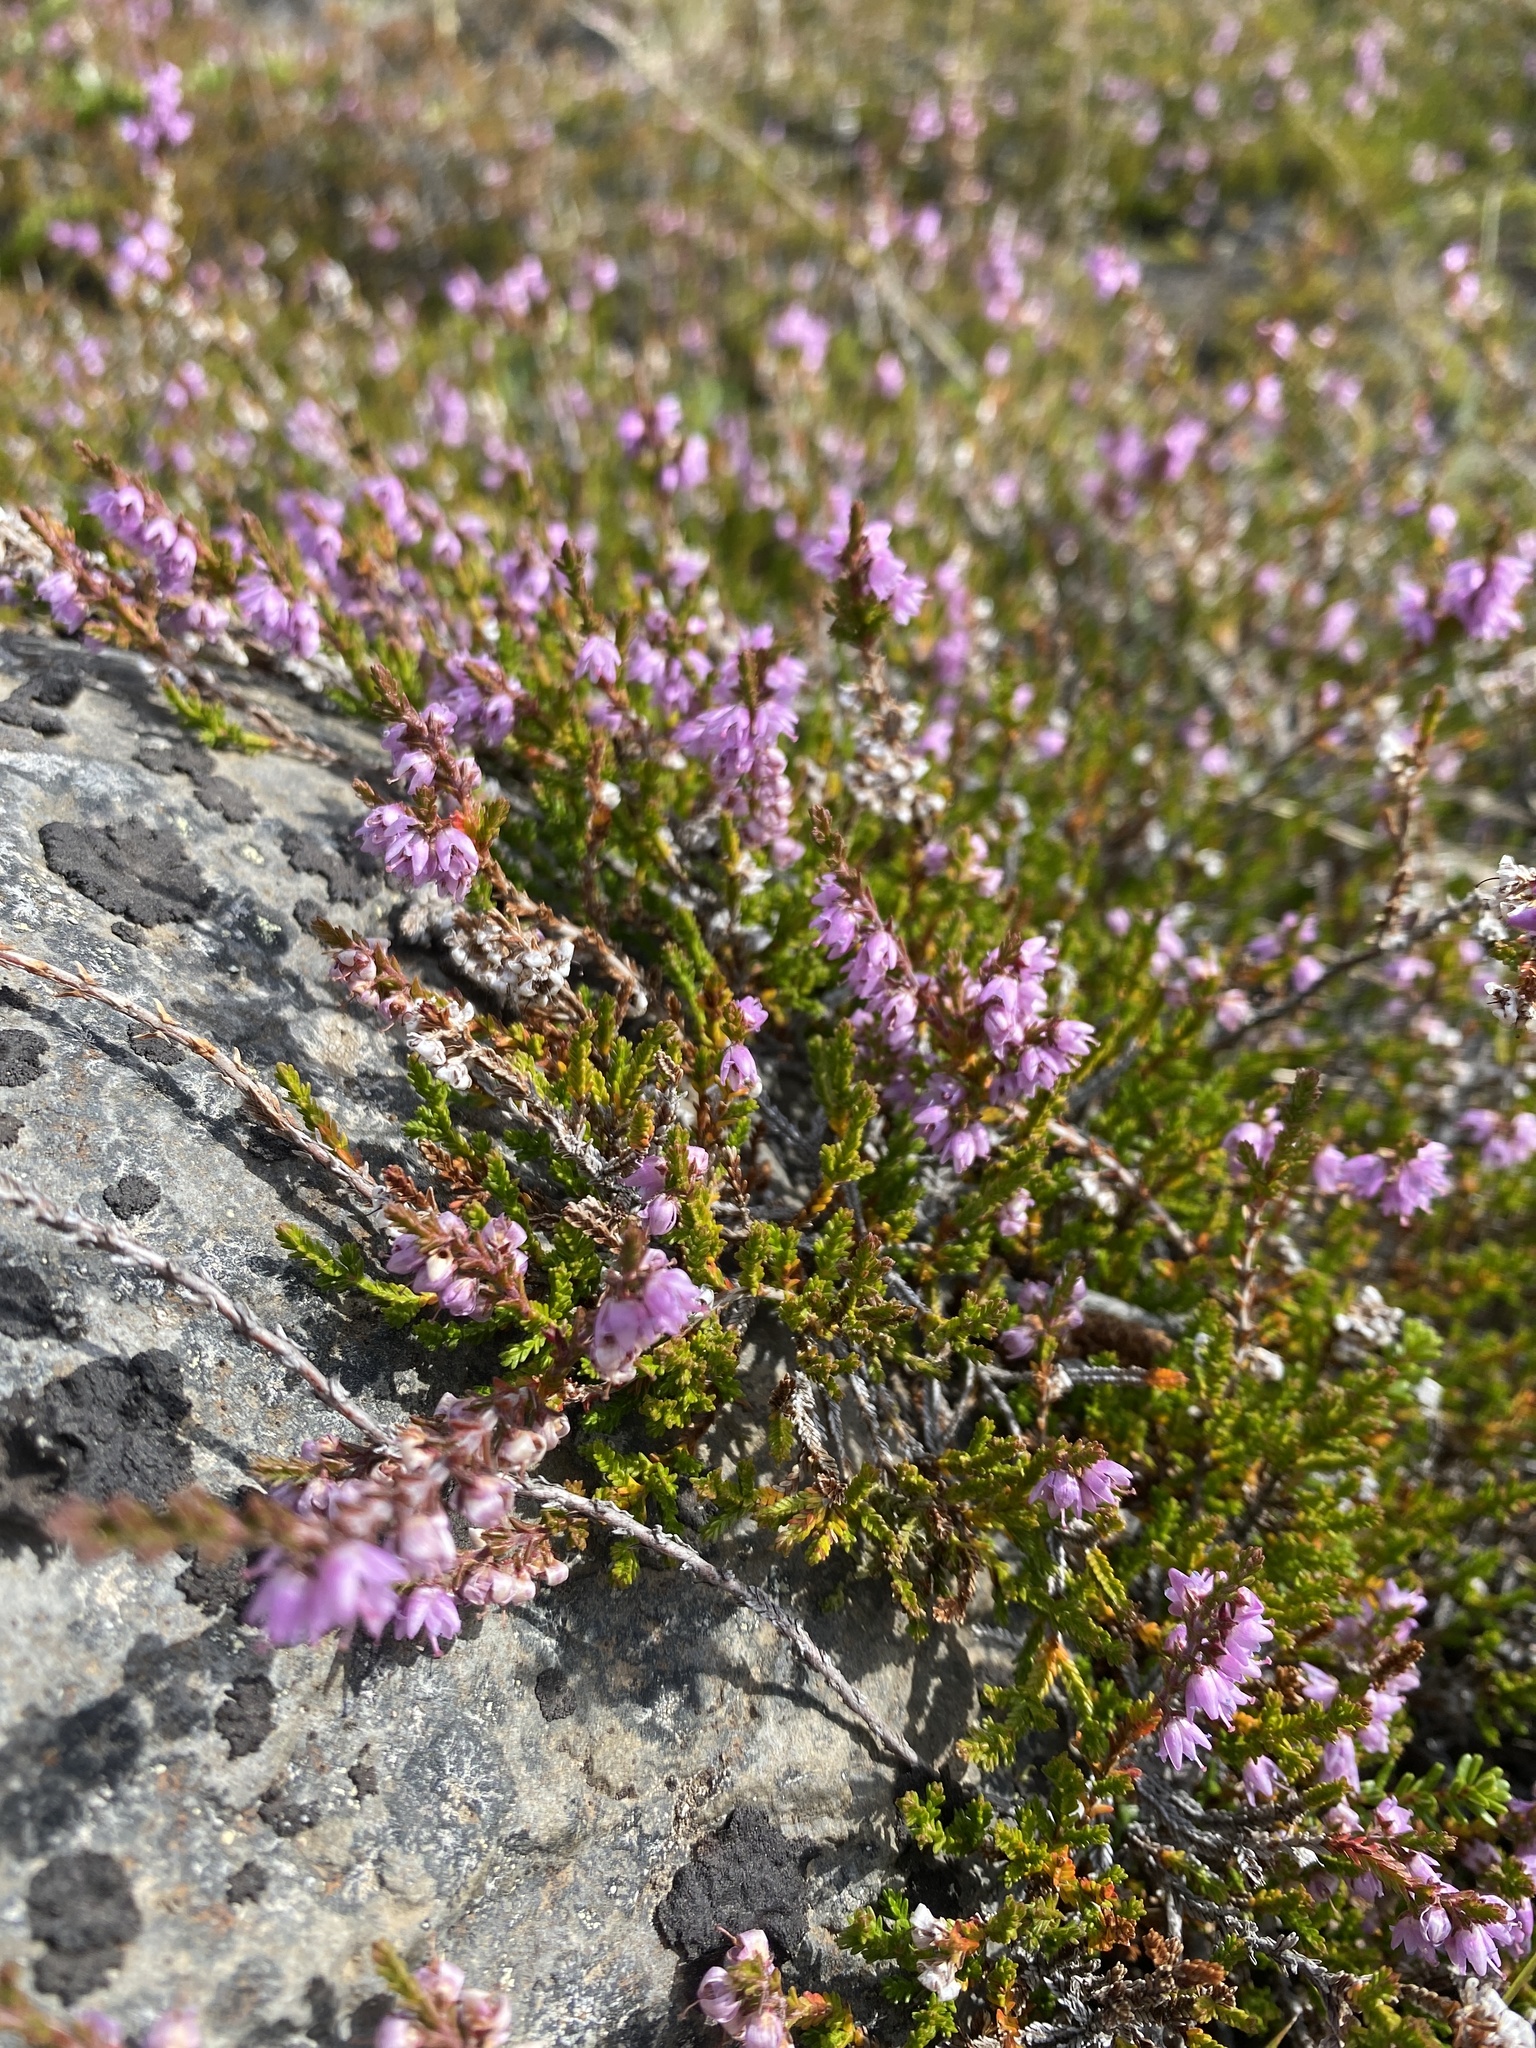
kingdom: Plantae
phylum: Tracheophyta
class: Magnoliopsida
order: Ericales
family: Ericaceae
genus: Calluna
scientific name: Calluna vulgaris
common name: Heather
